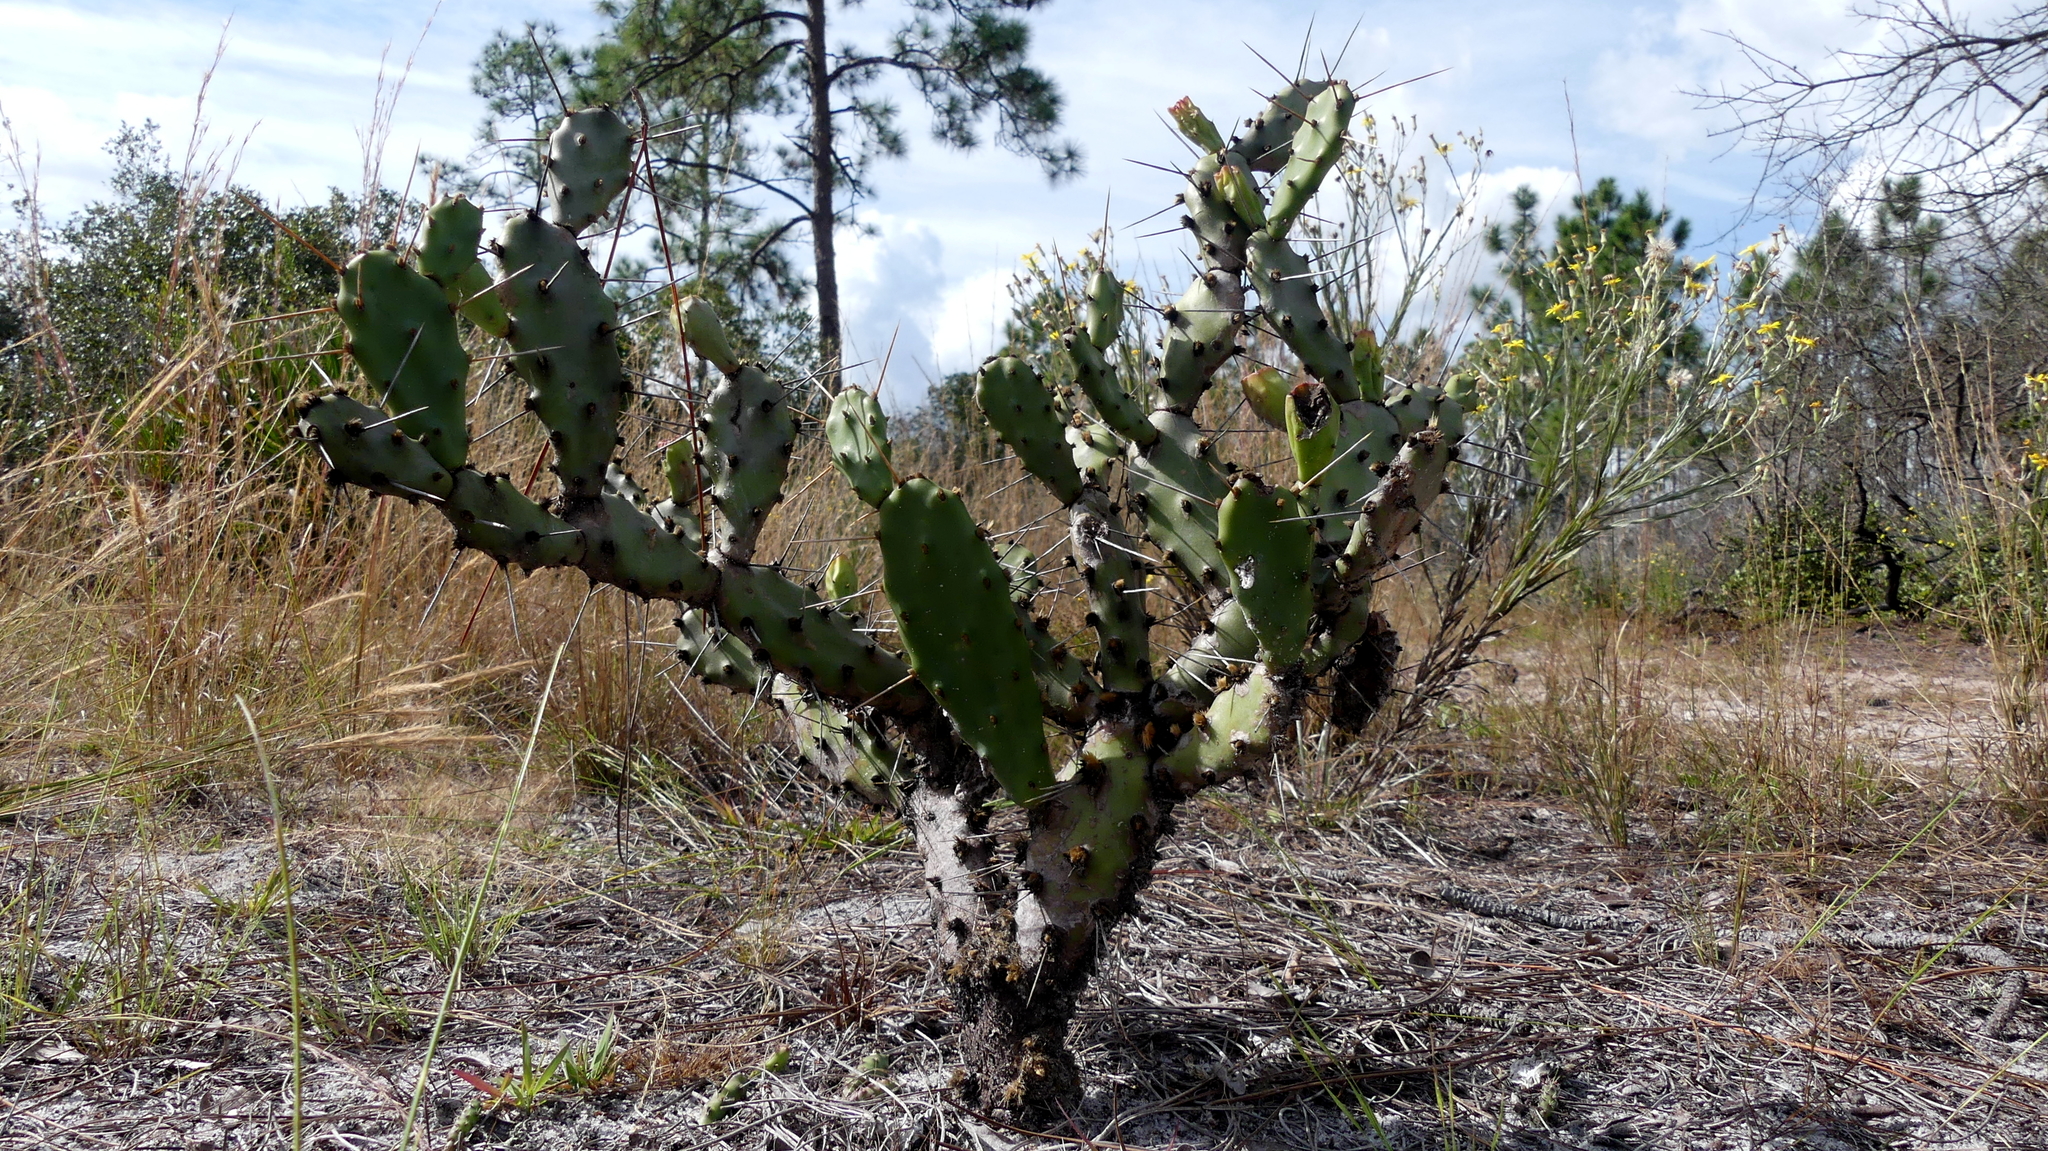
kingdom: Plantae
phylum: Tracheophyta
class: Magnoliopsida
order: Caryophyllales
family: Cactaceae
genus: Opuntia
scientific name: Opuntia austrina
